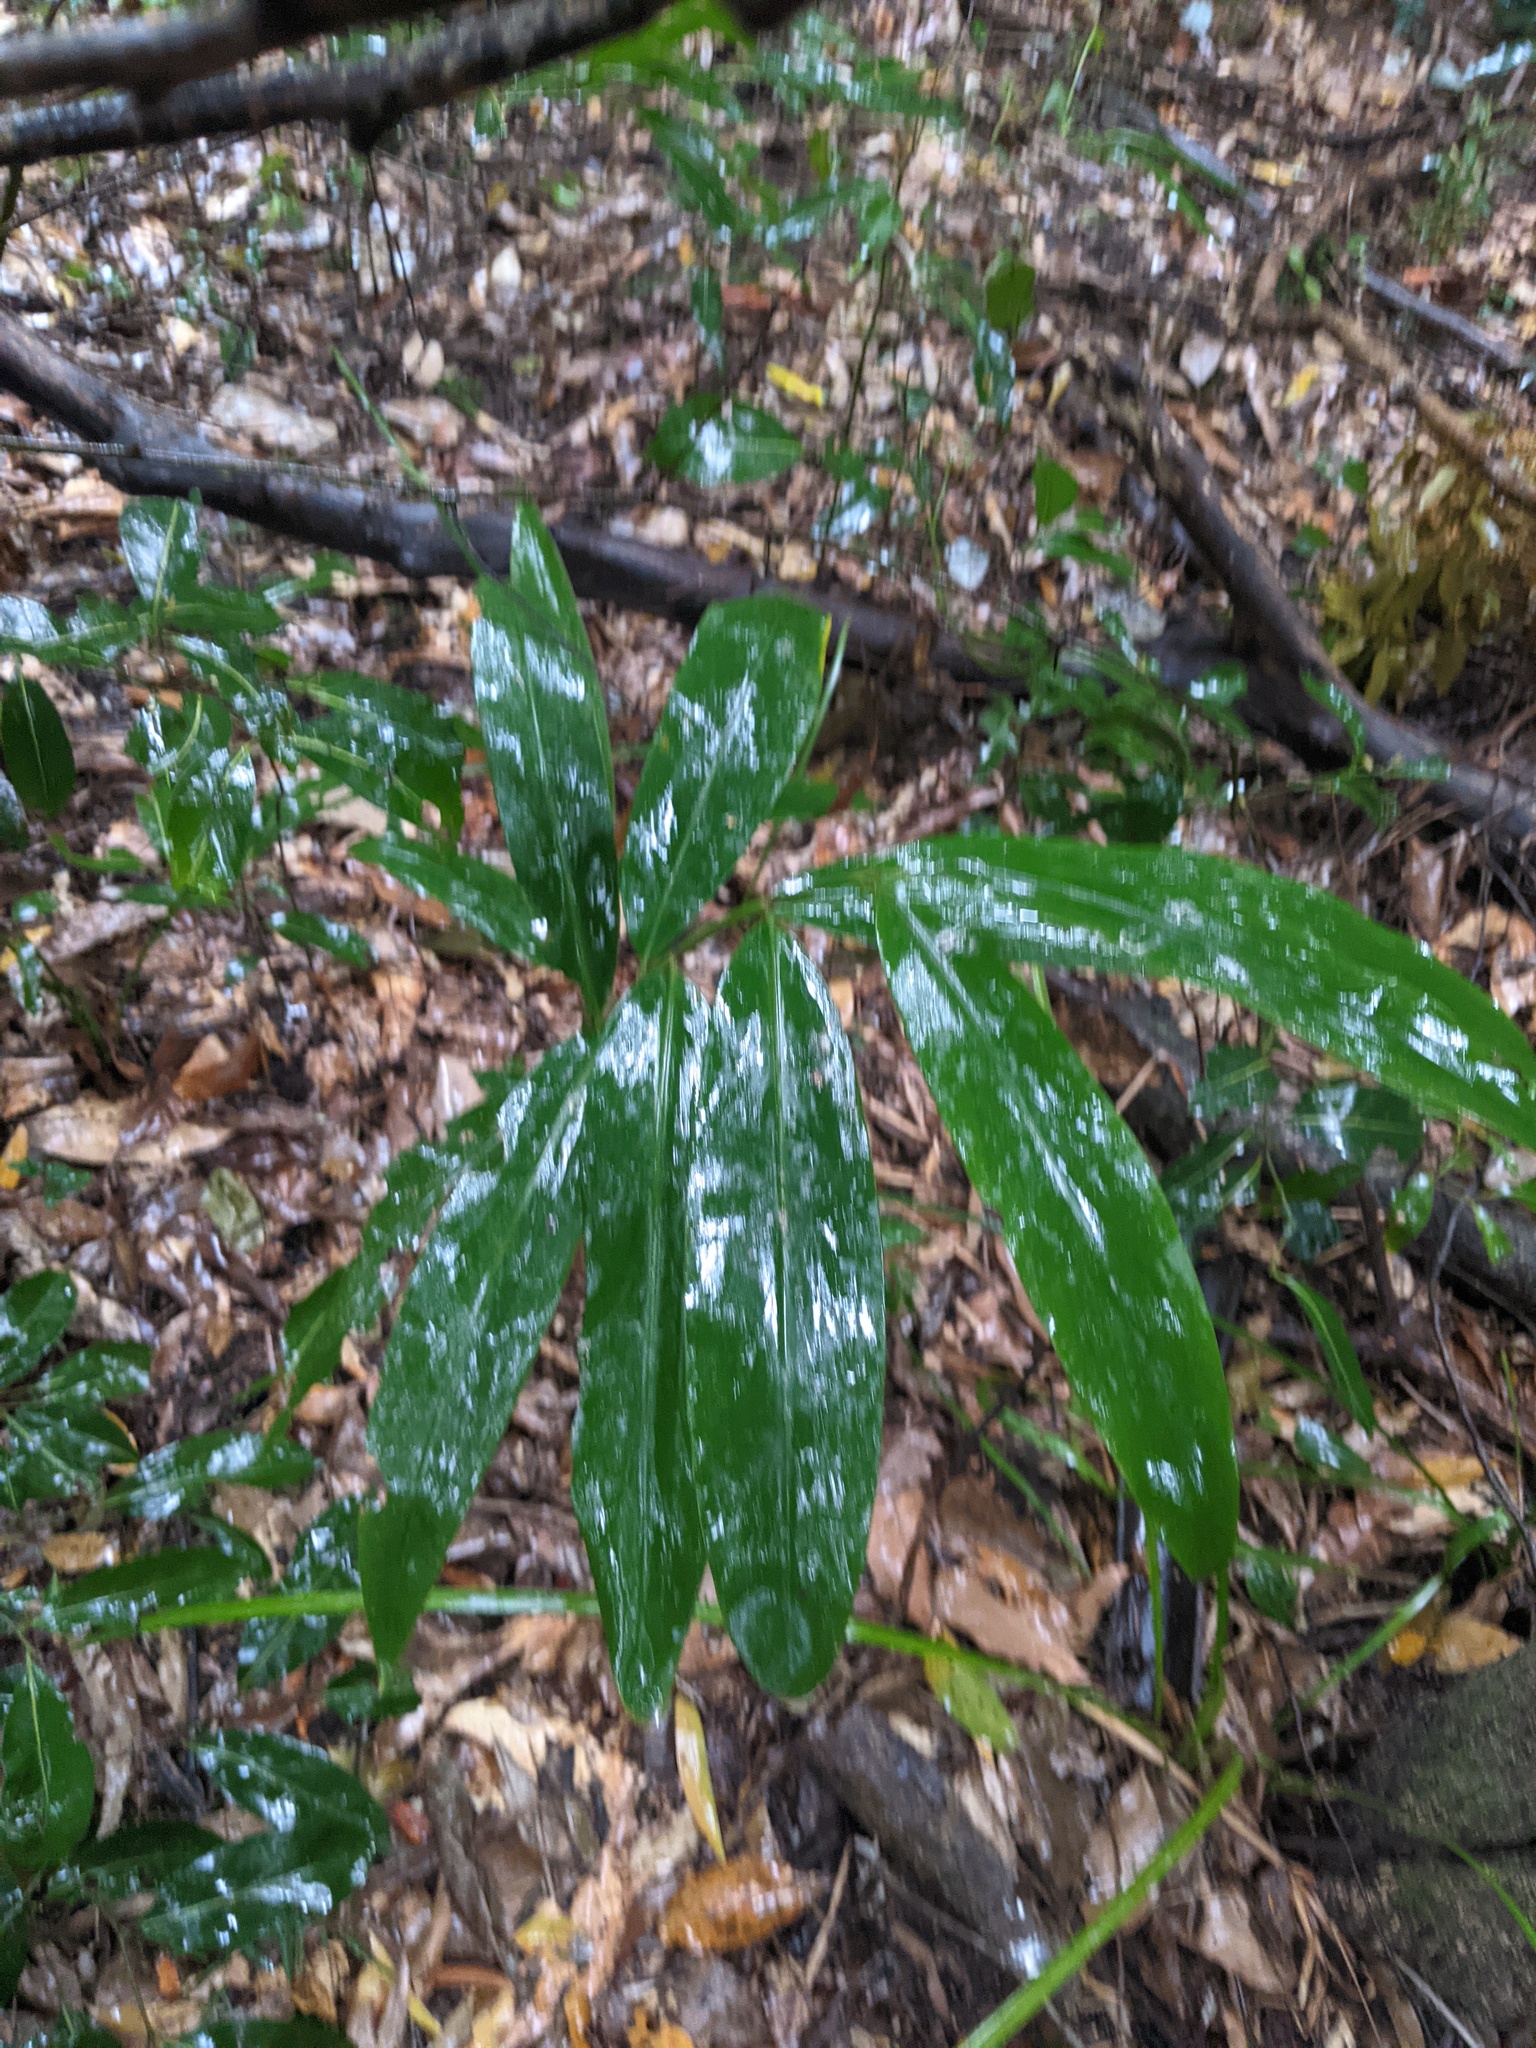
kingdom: Plantae
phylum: Tracheophyta
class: Liliopsida
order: Zingiberales
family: Zingiberaceae
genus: Alpinia
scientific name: Alpinia caerulea
